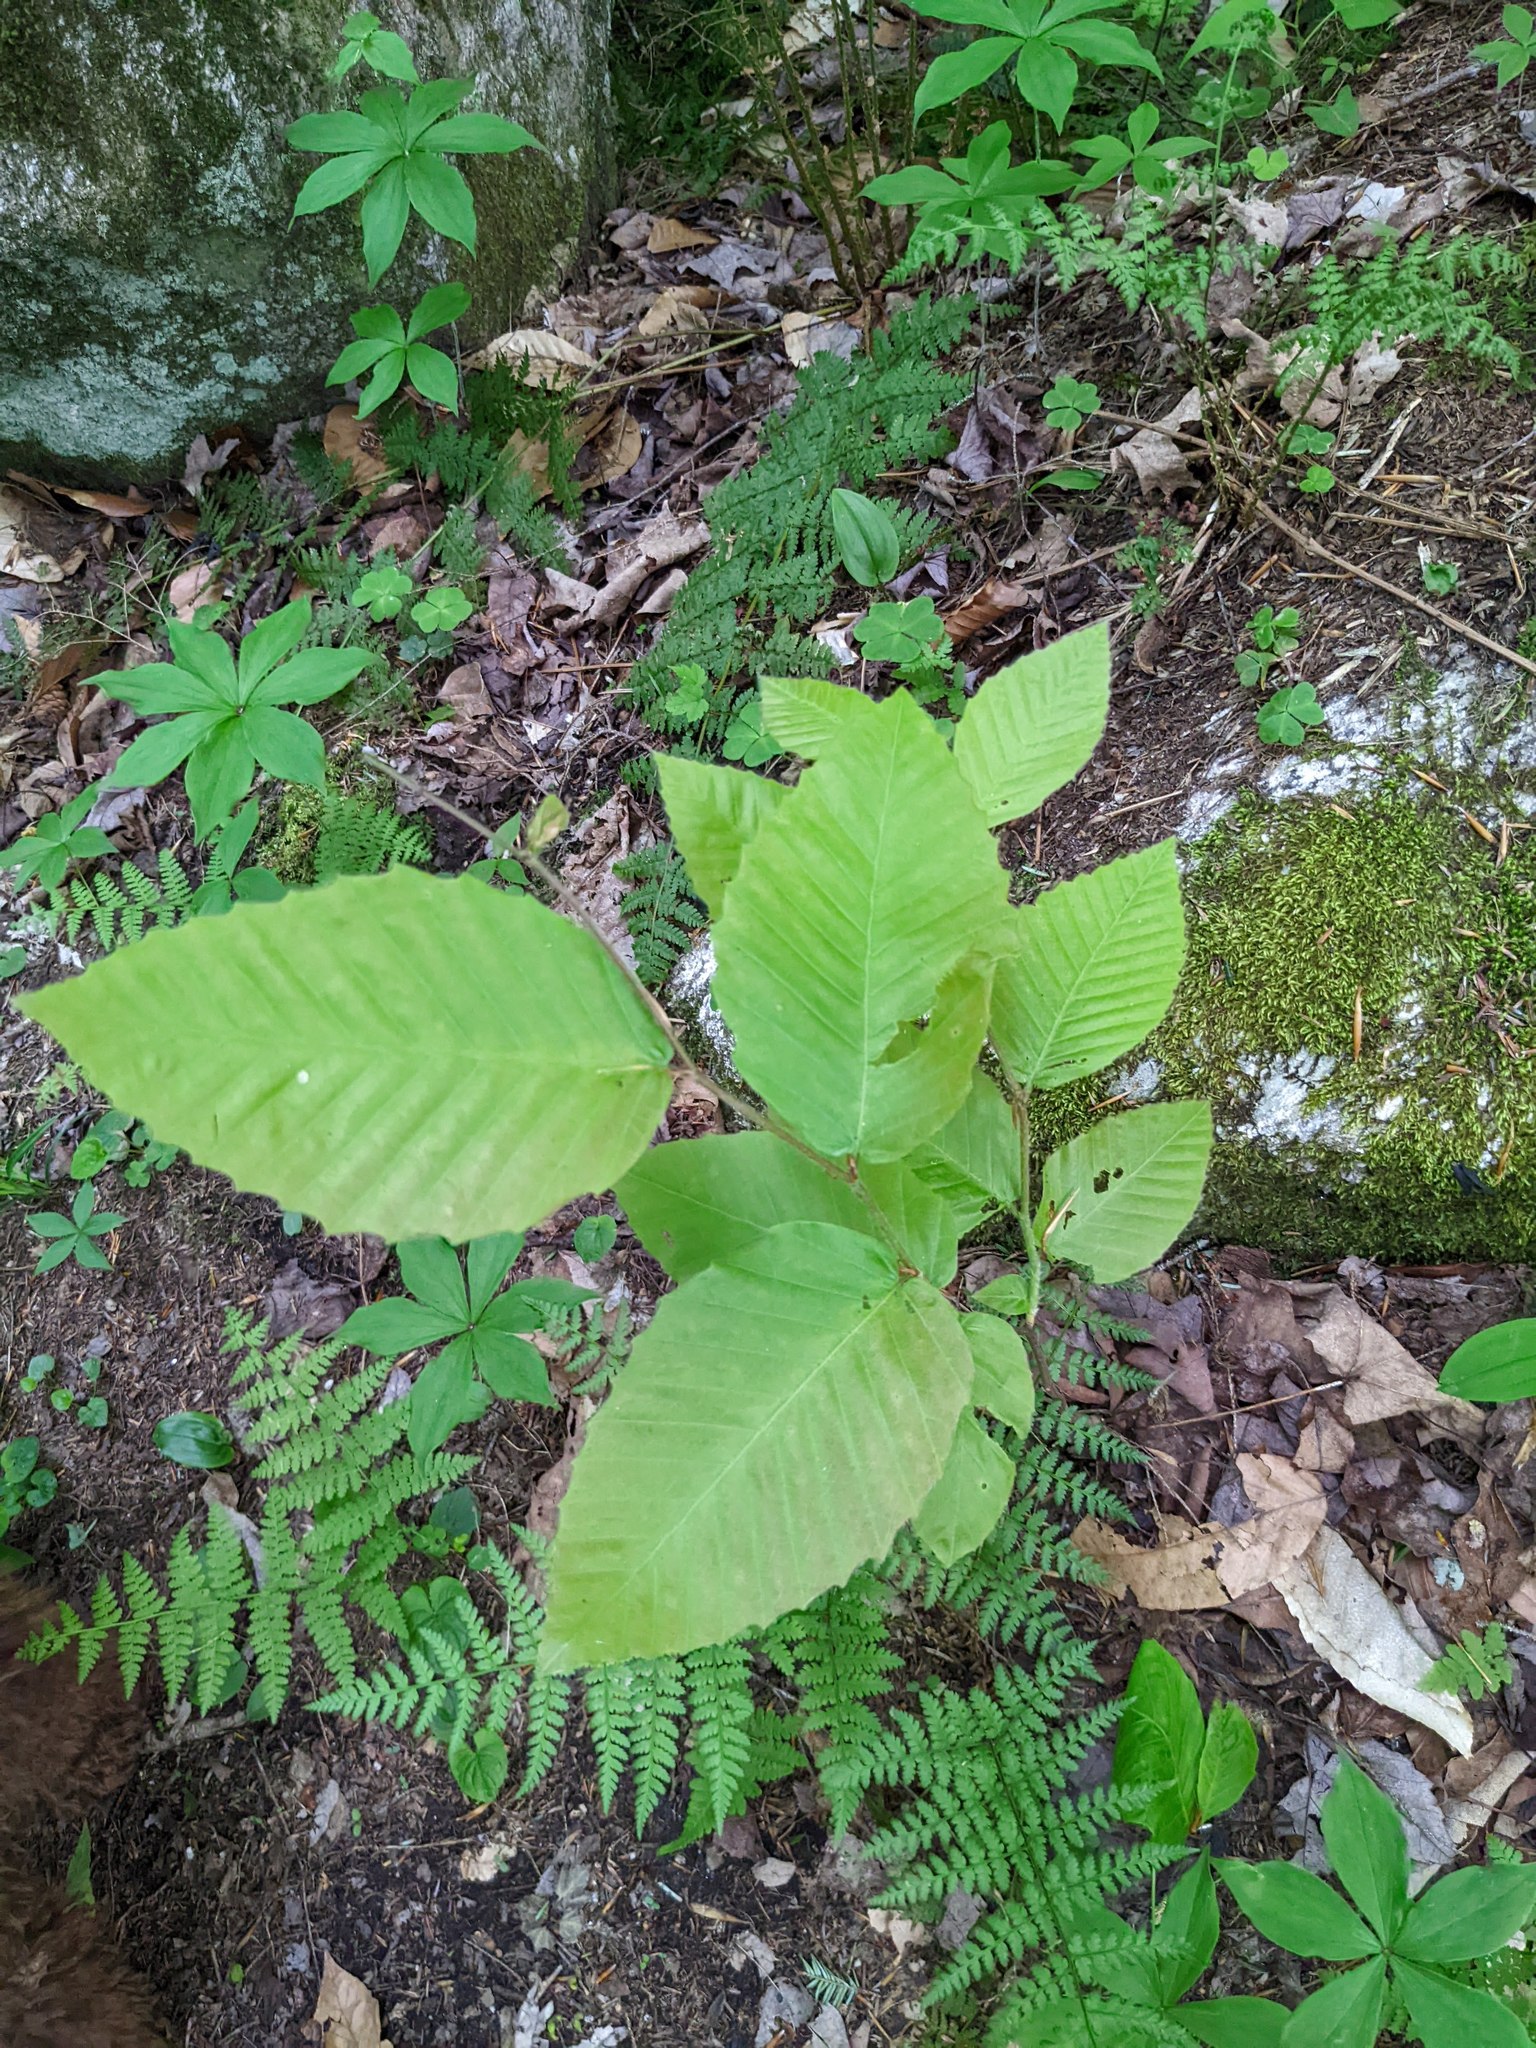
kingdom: Plantae
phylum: Tracheophyta
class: Magnoliopsida
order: Fagales
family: Fagaceae
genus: Fagus
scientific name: Fagus grandifolia
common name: American beech
